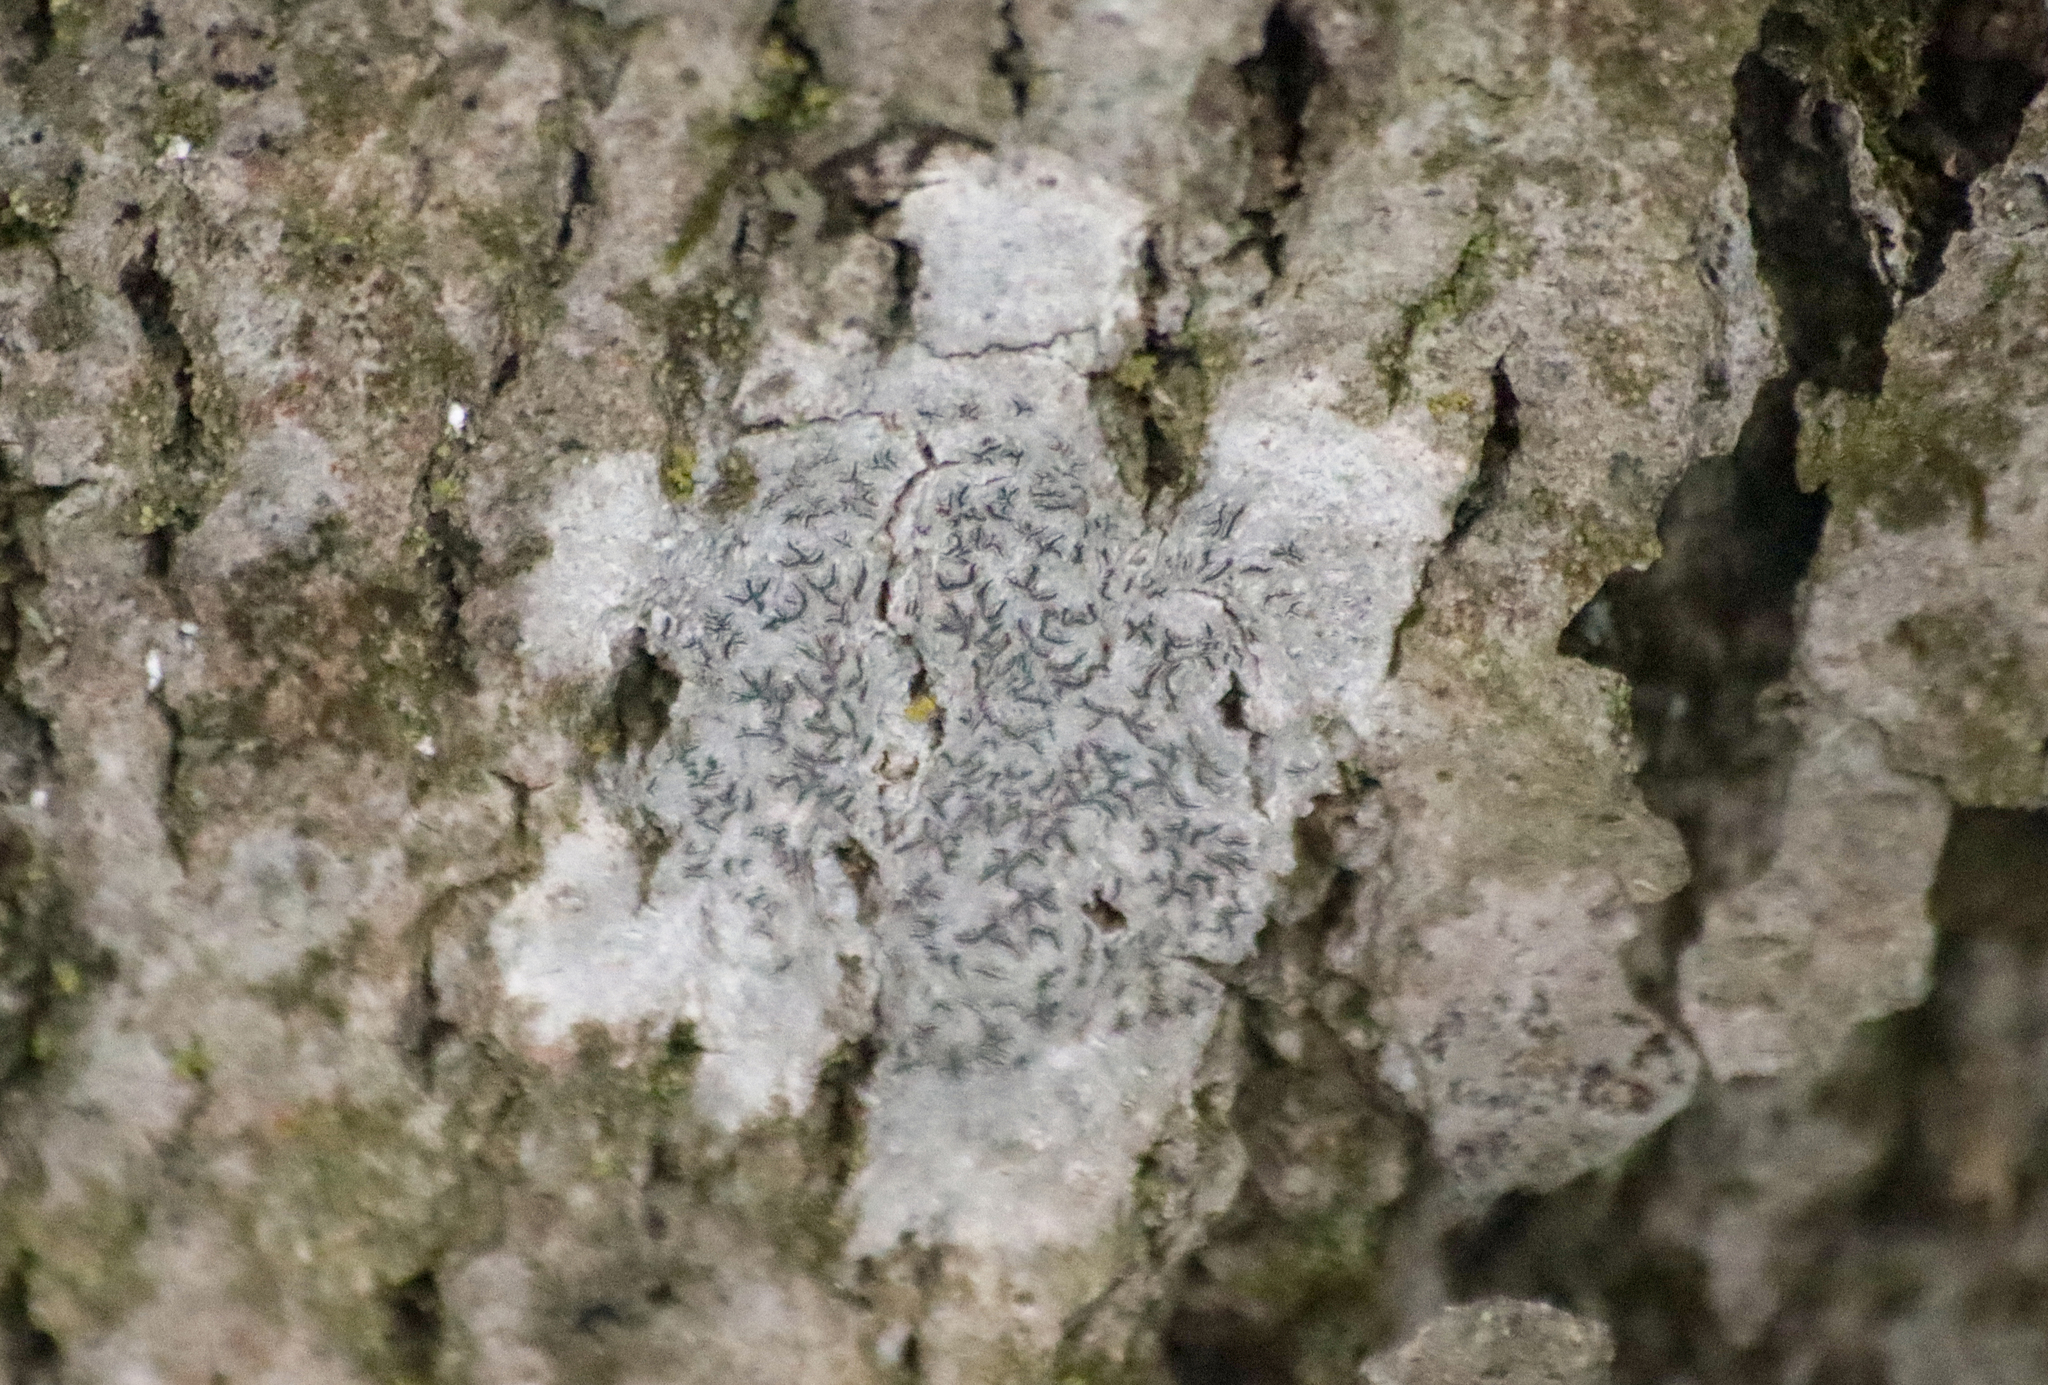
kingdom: Fungi
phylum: Ascomycota
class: Lecanoromycetes
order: Ostropales
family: Graphidaceae
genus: Graphis
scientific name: Graphis scripta
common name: Script lichen
